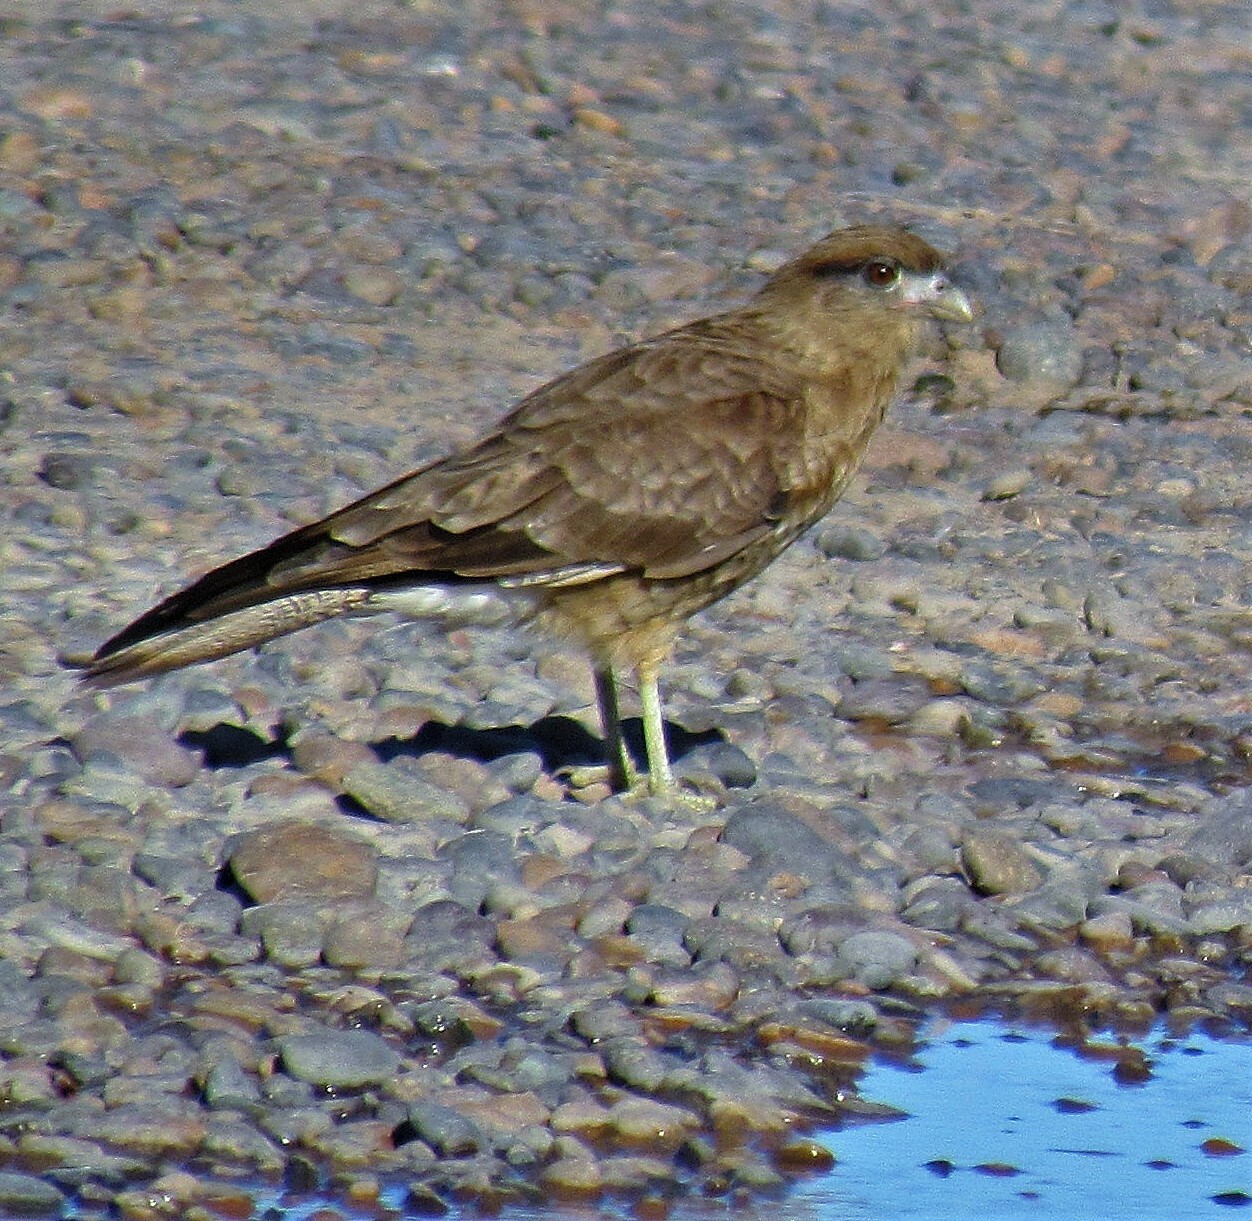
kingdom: Animalia
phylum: Chordata
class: Aves
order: Falconiformes
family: Falconidae
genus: Daptrius
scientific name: Daptrius
